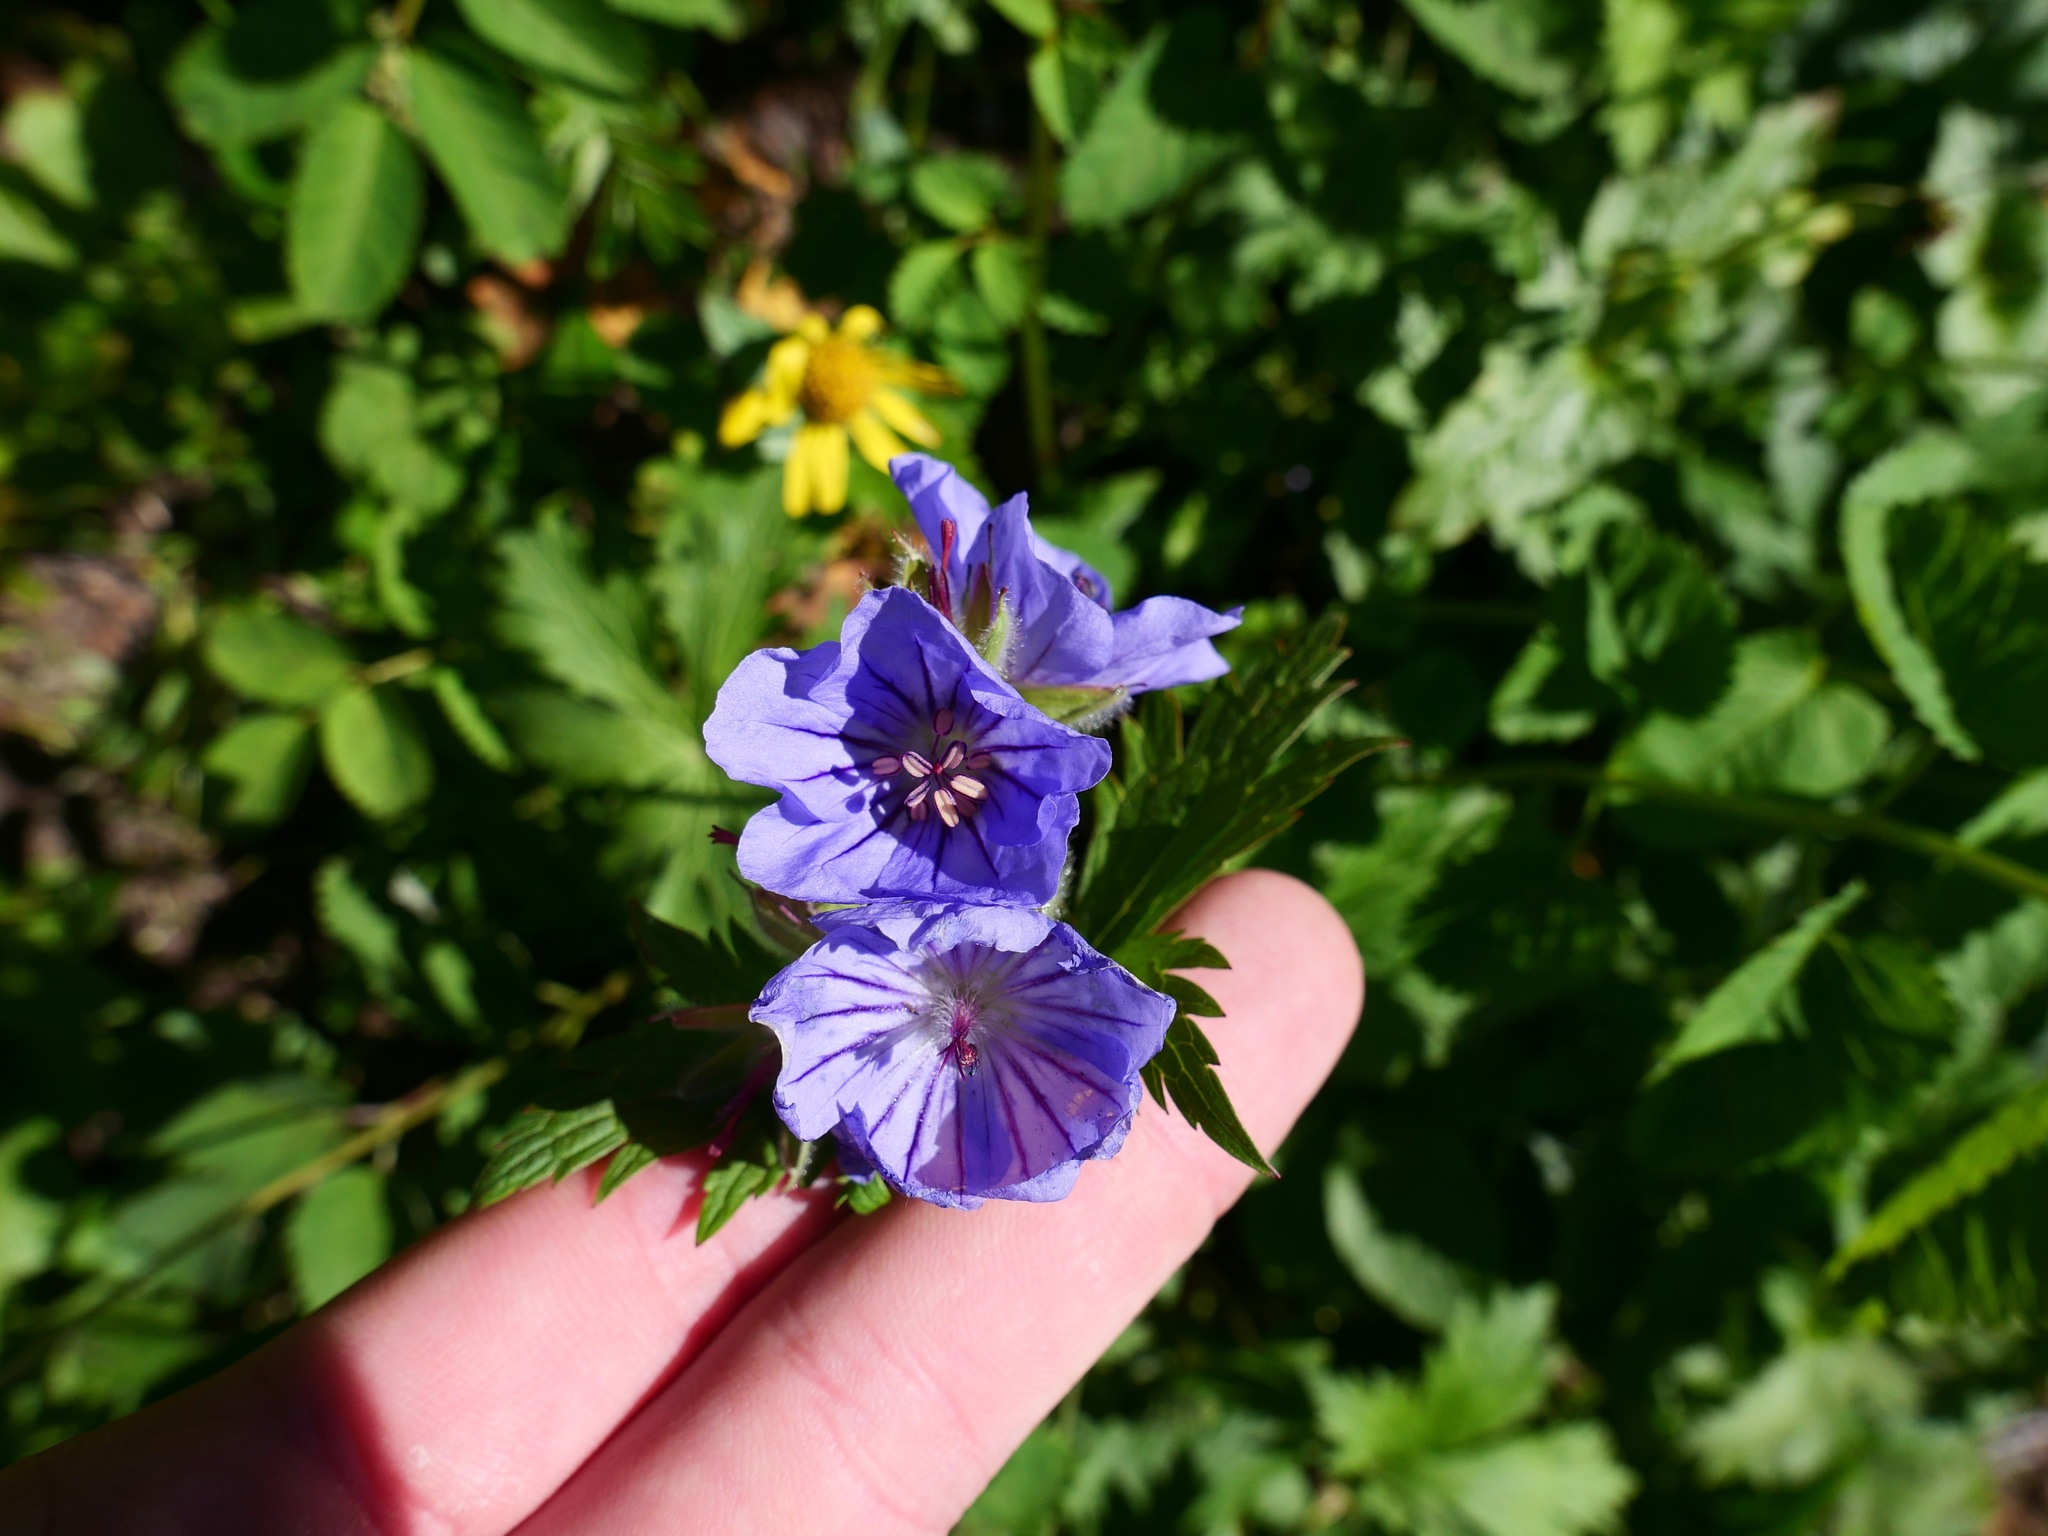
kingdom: Plantae
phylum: Tracheophyta
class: Magnoliopsida
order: Geraniales
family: Geraniaceae
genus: Geranium
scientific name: Geranium erianthum
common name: Northern crane's-bill
